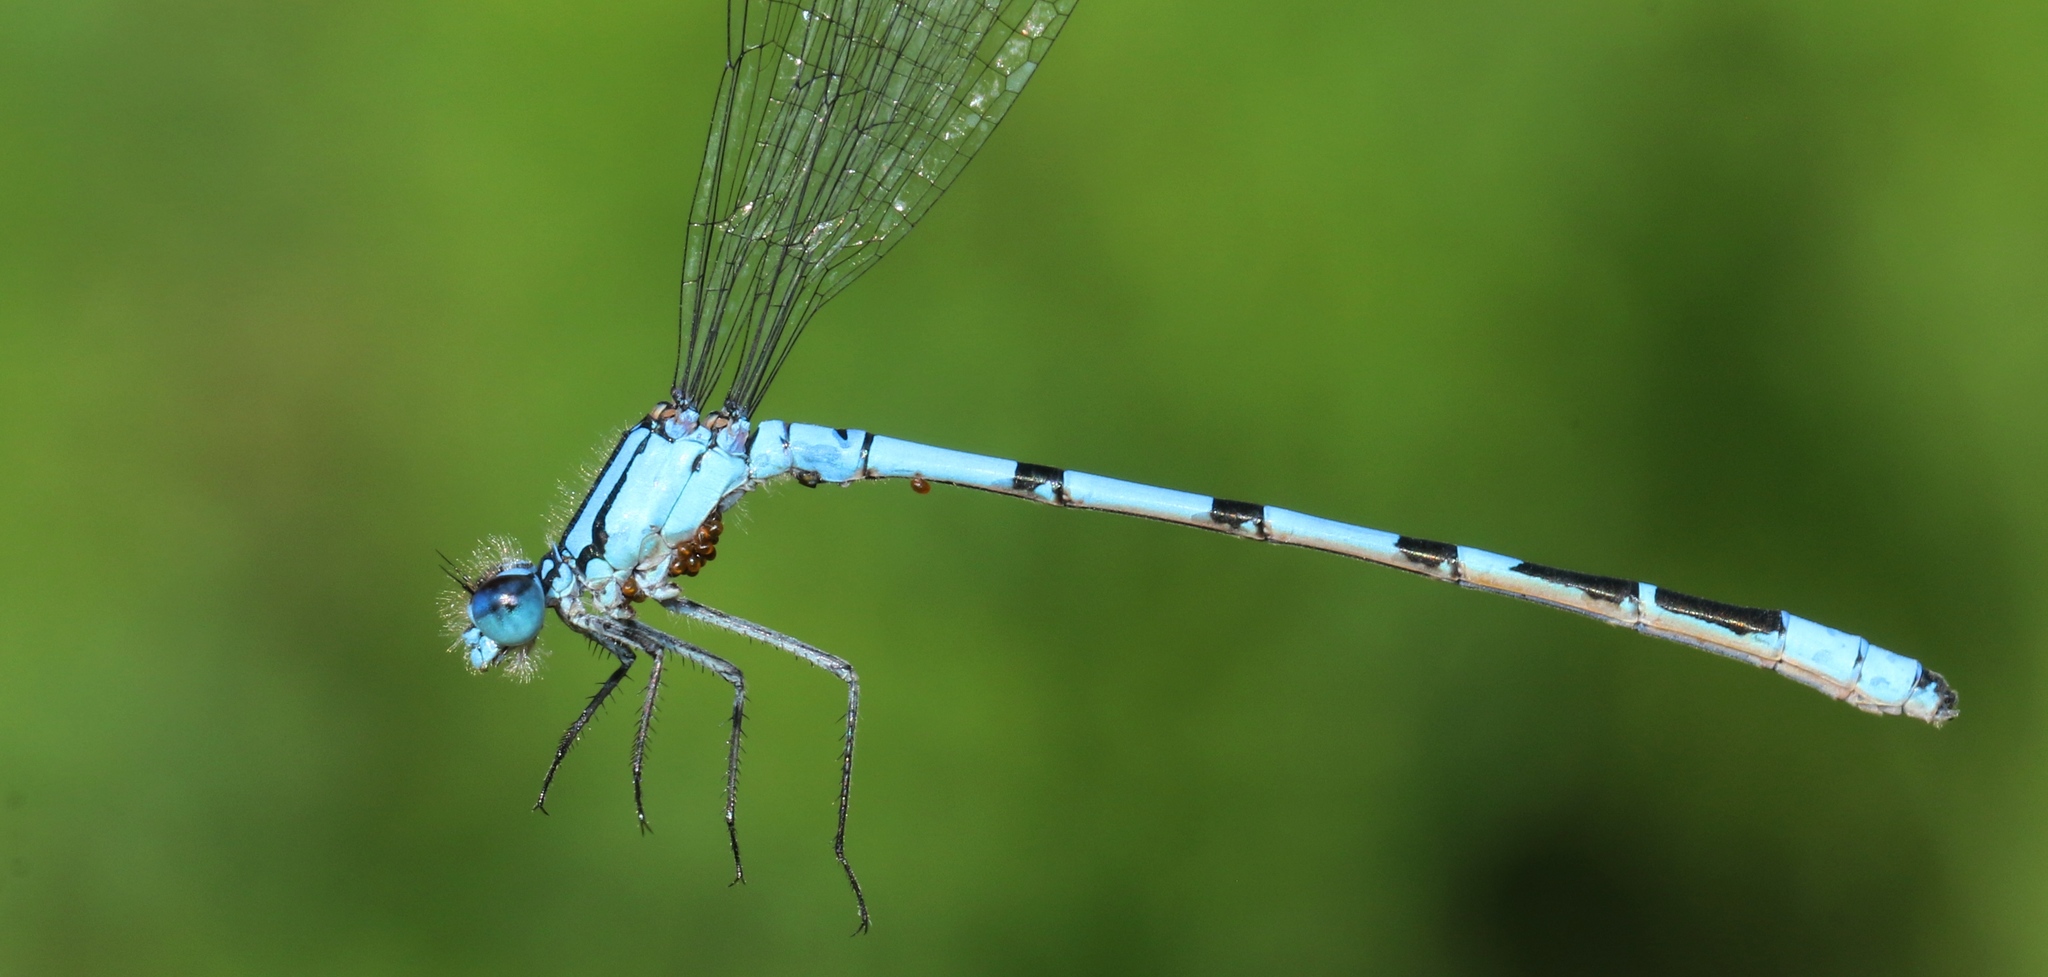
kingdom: Animalia
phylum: Arthropoda
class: Insecta
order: Odonata
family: Coenagrionidae
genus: Enallagma
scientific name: Enallagma boreale
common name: Boreal bluet
